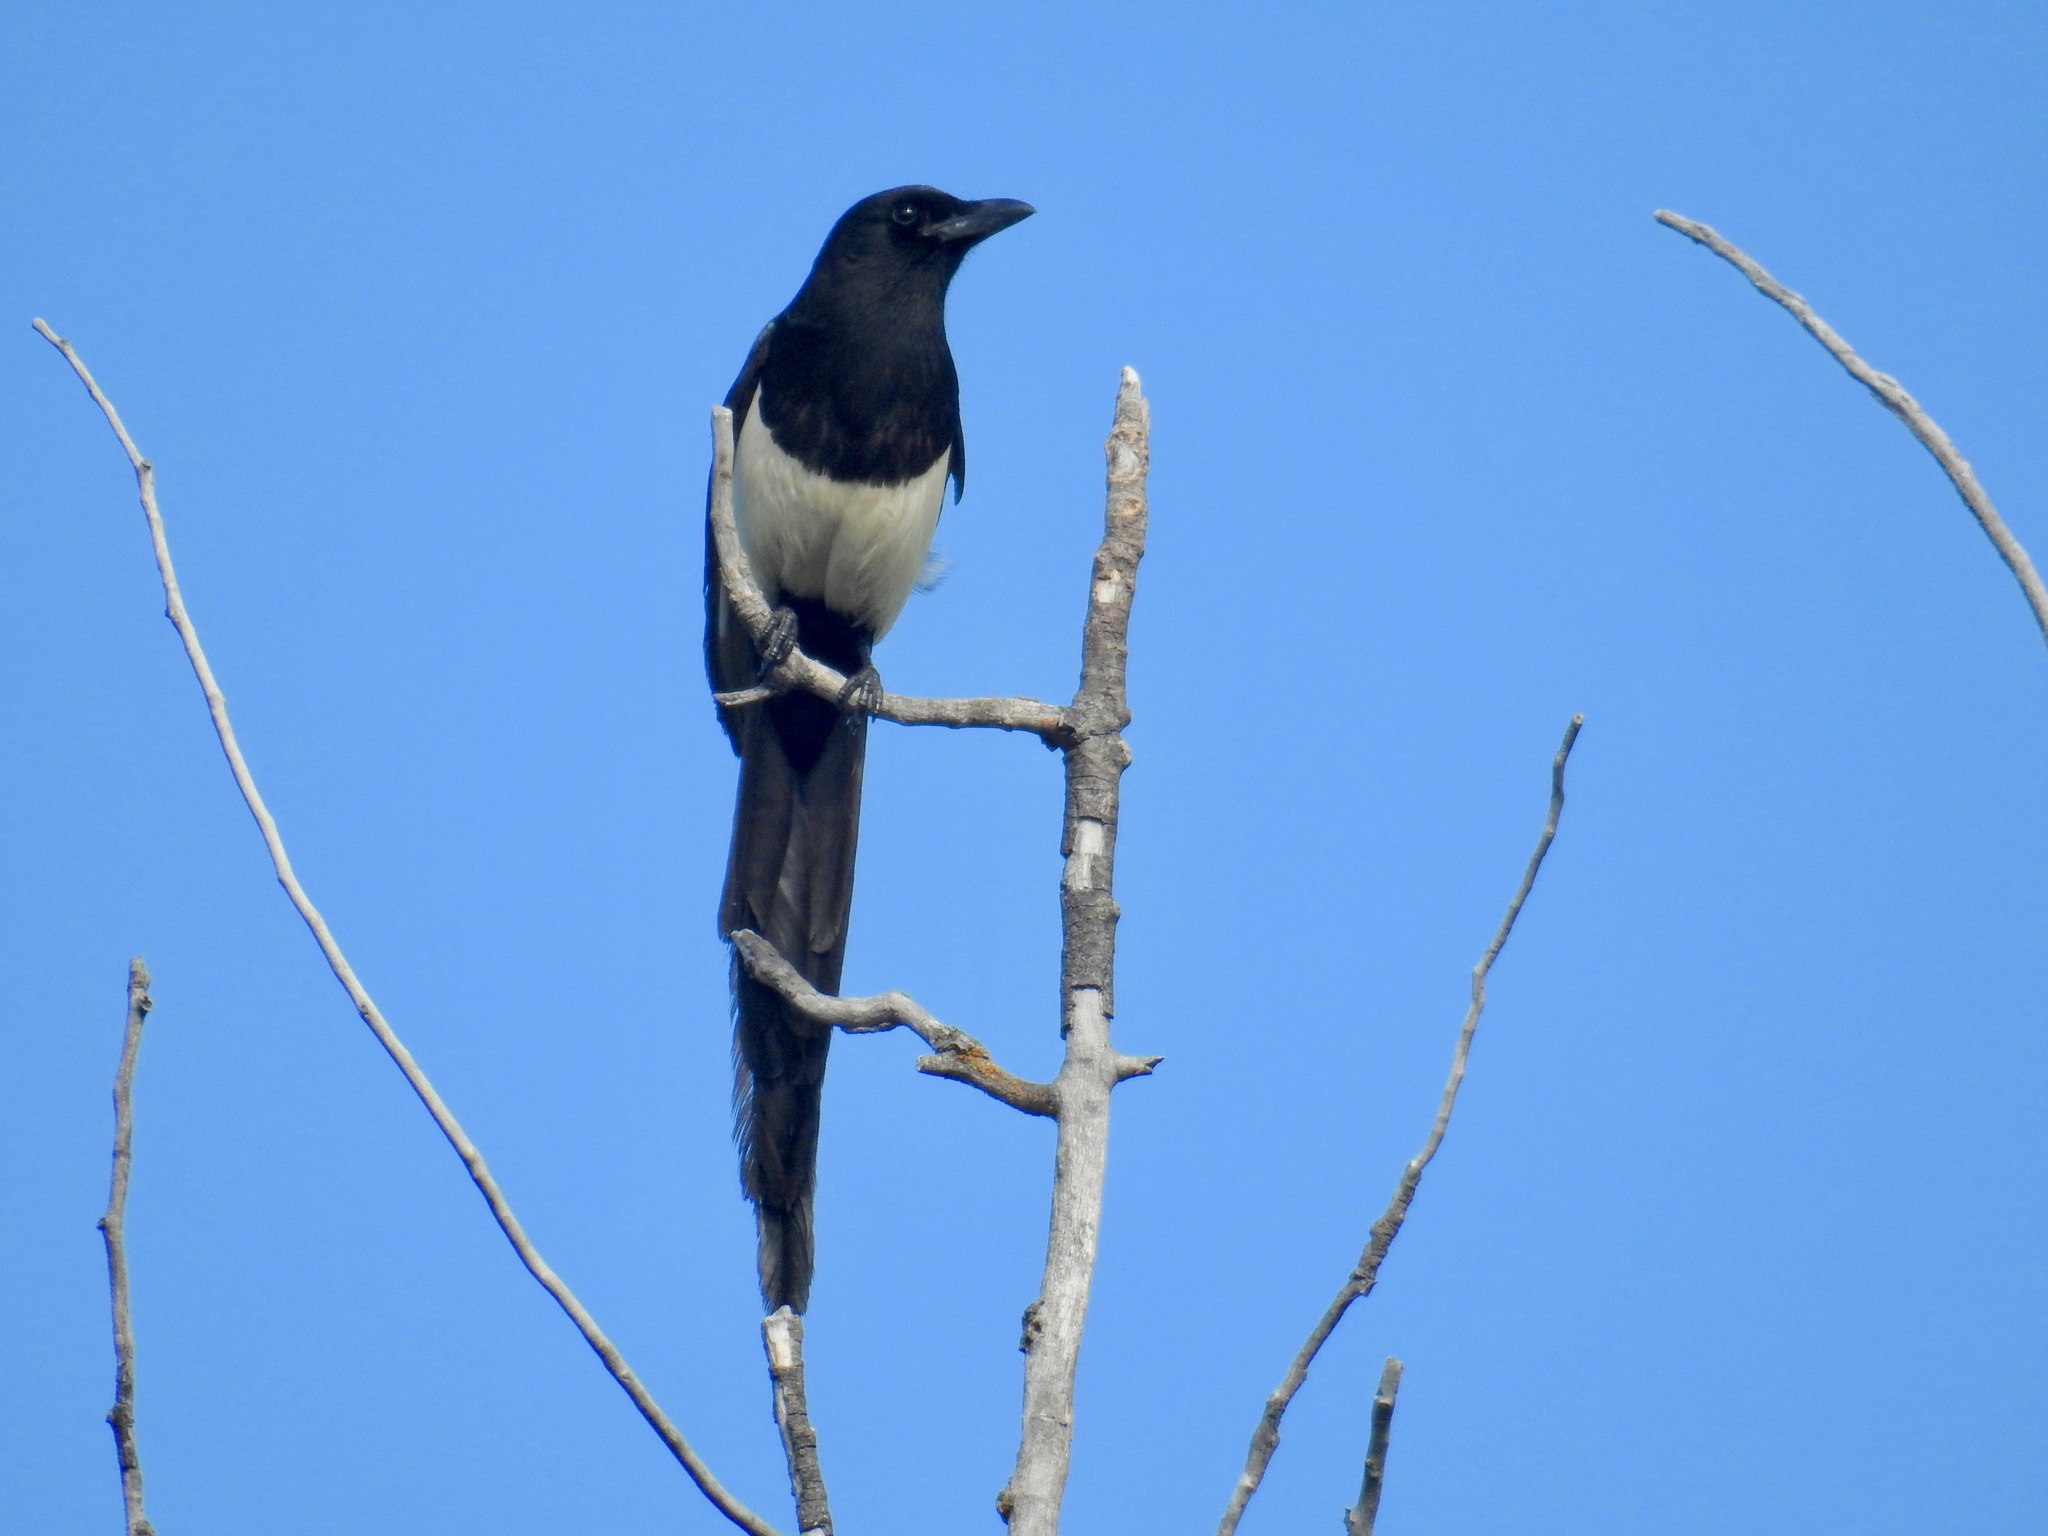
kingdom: Animalia
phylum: Chordata
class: Aves
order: Passeriformes
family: Corvidae
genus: Pica
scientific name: Pica hudsonia
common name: Black-billed magpie
